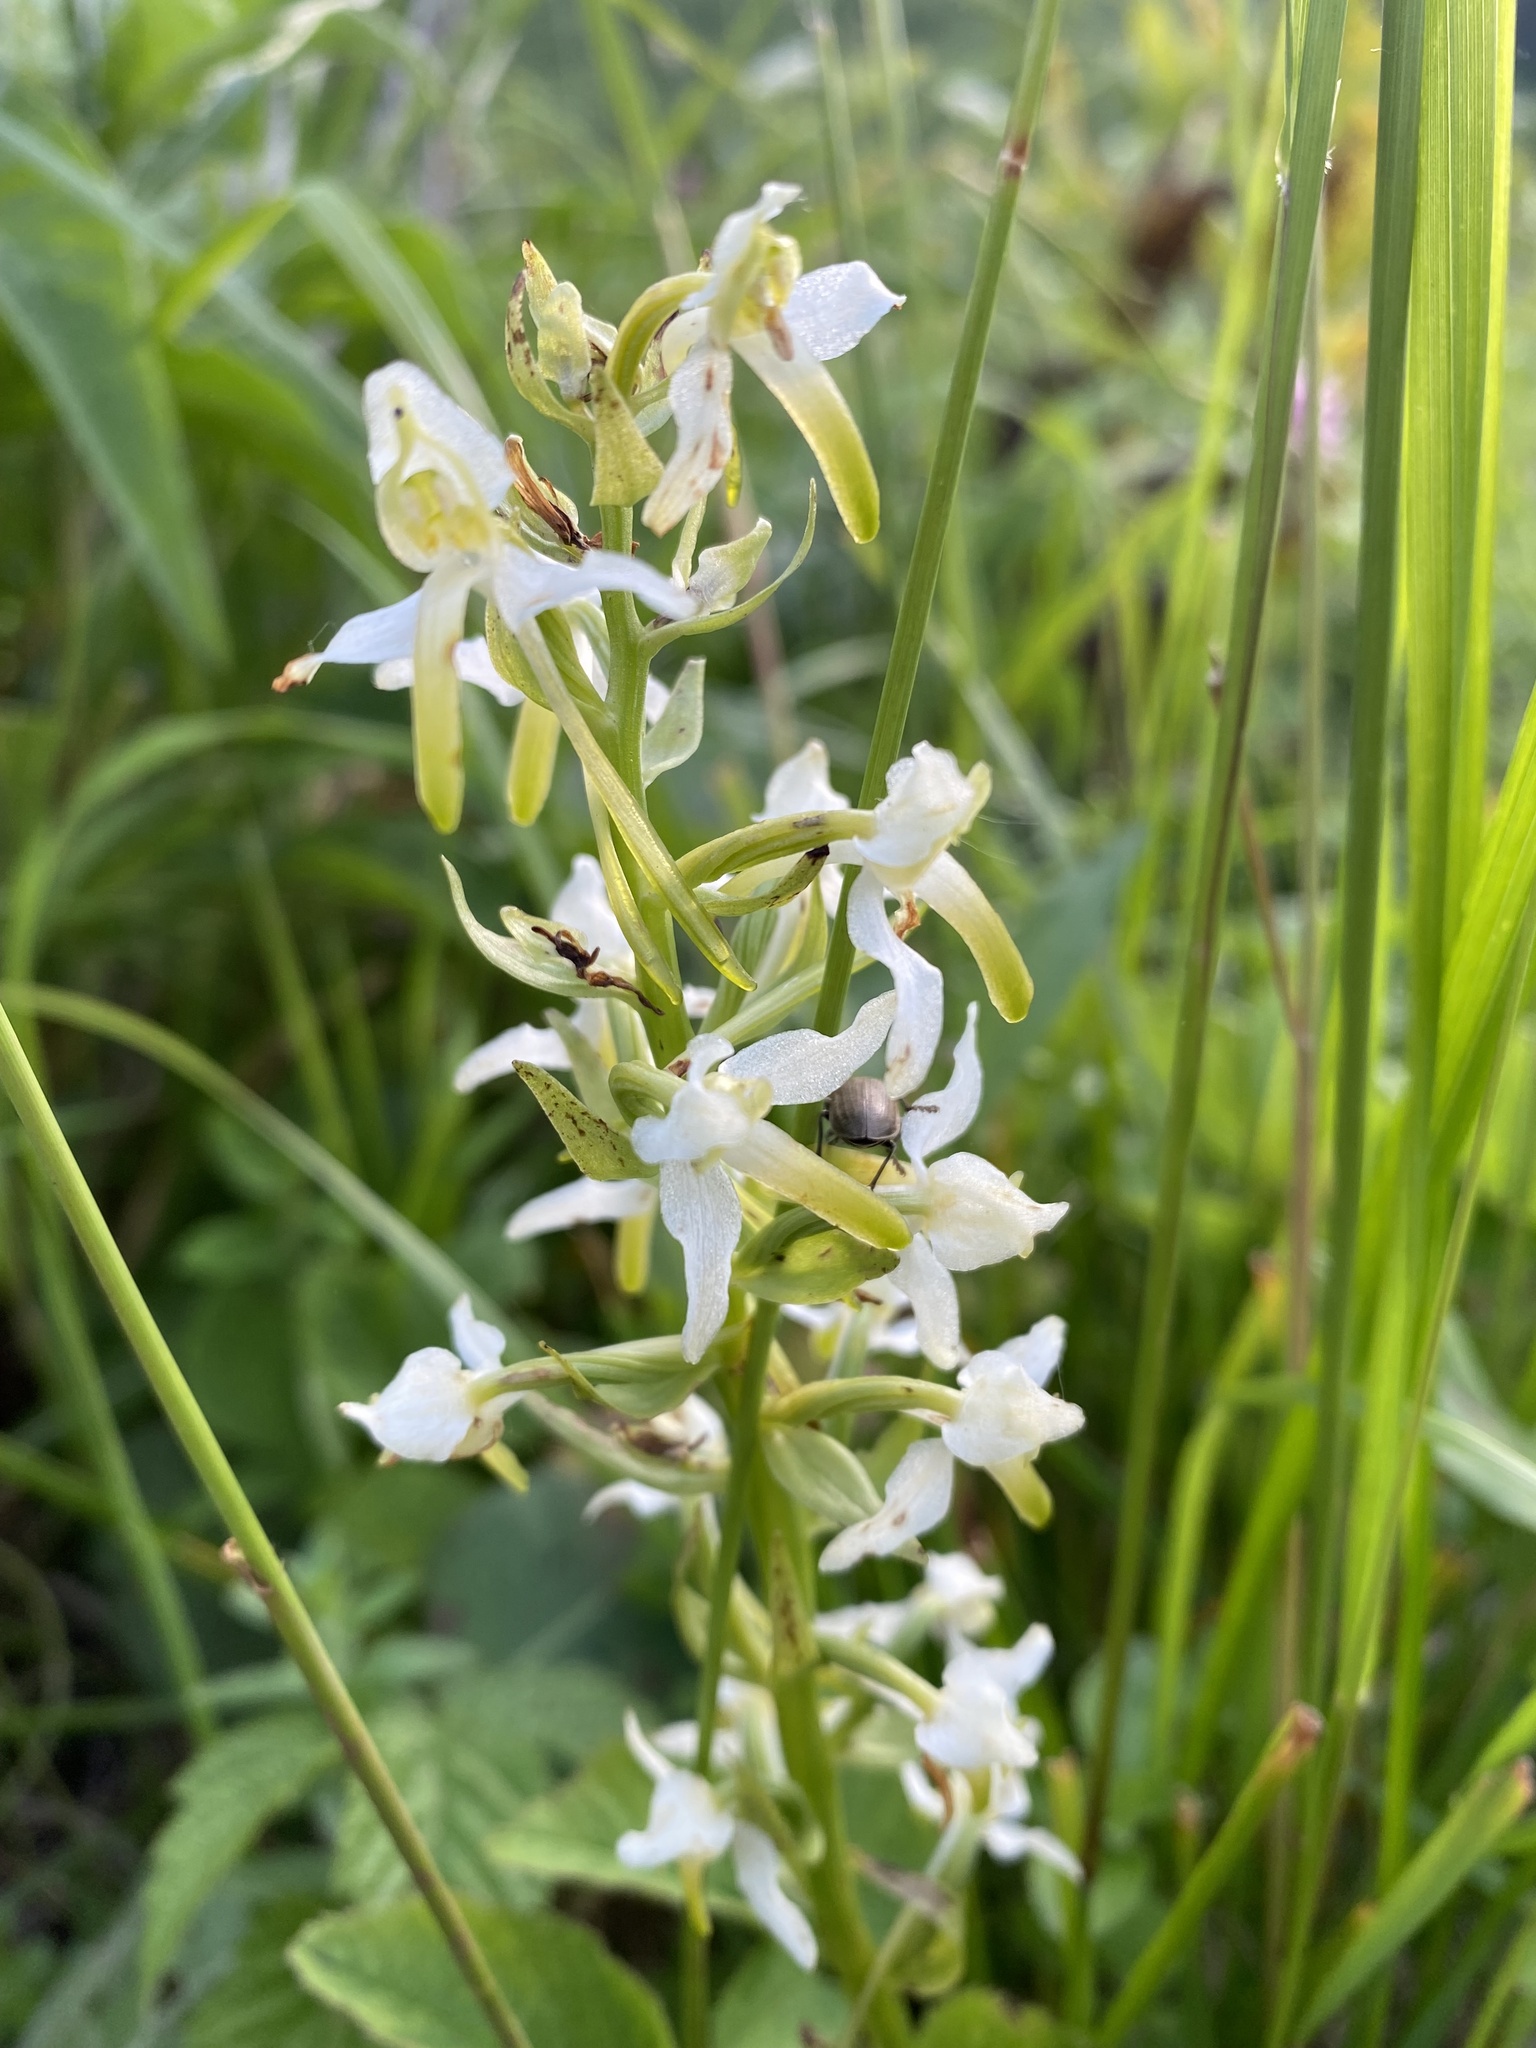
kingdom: Plantae
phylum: Tracheophyta
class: Liliopsida
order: Asparagales
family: Orchidaceae
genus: Platanthera
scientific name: Platanthera chlorantha
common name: Greater butterfly-orchid
